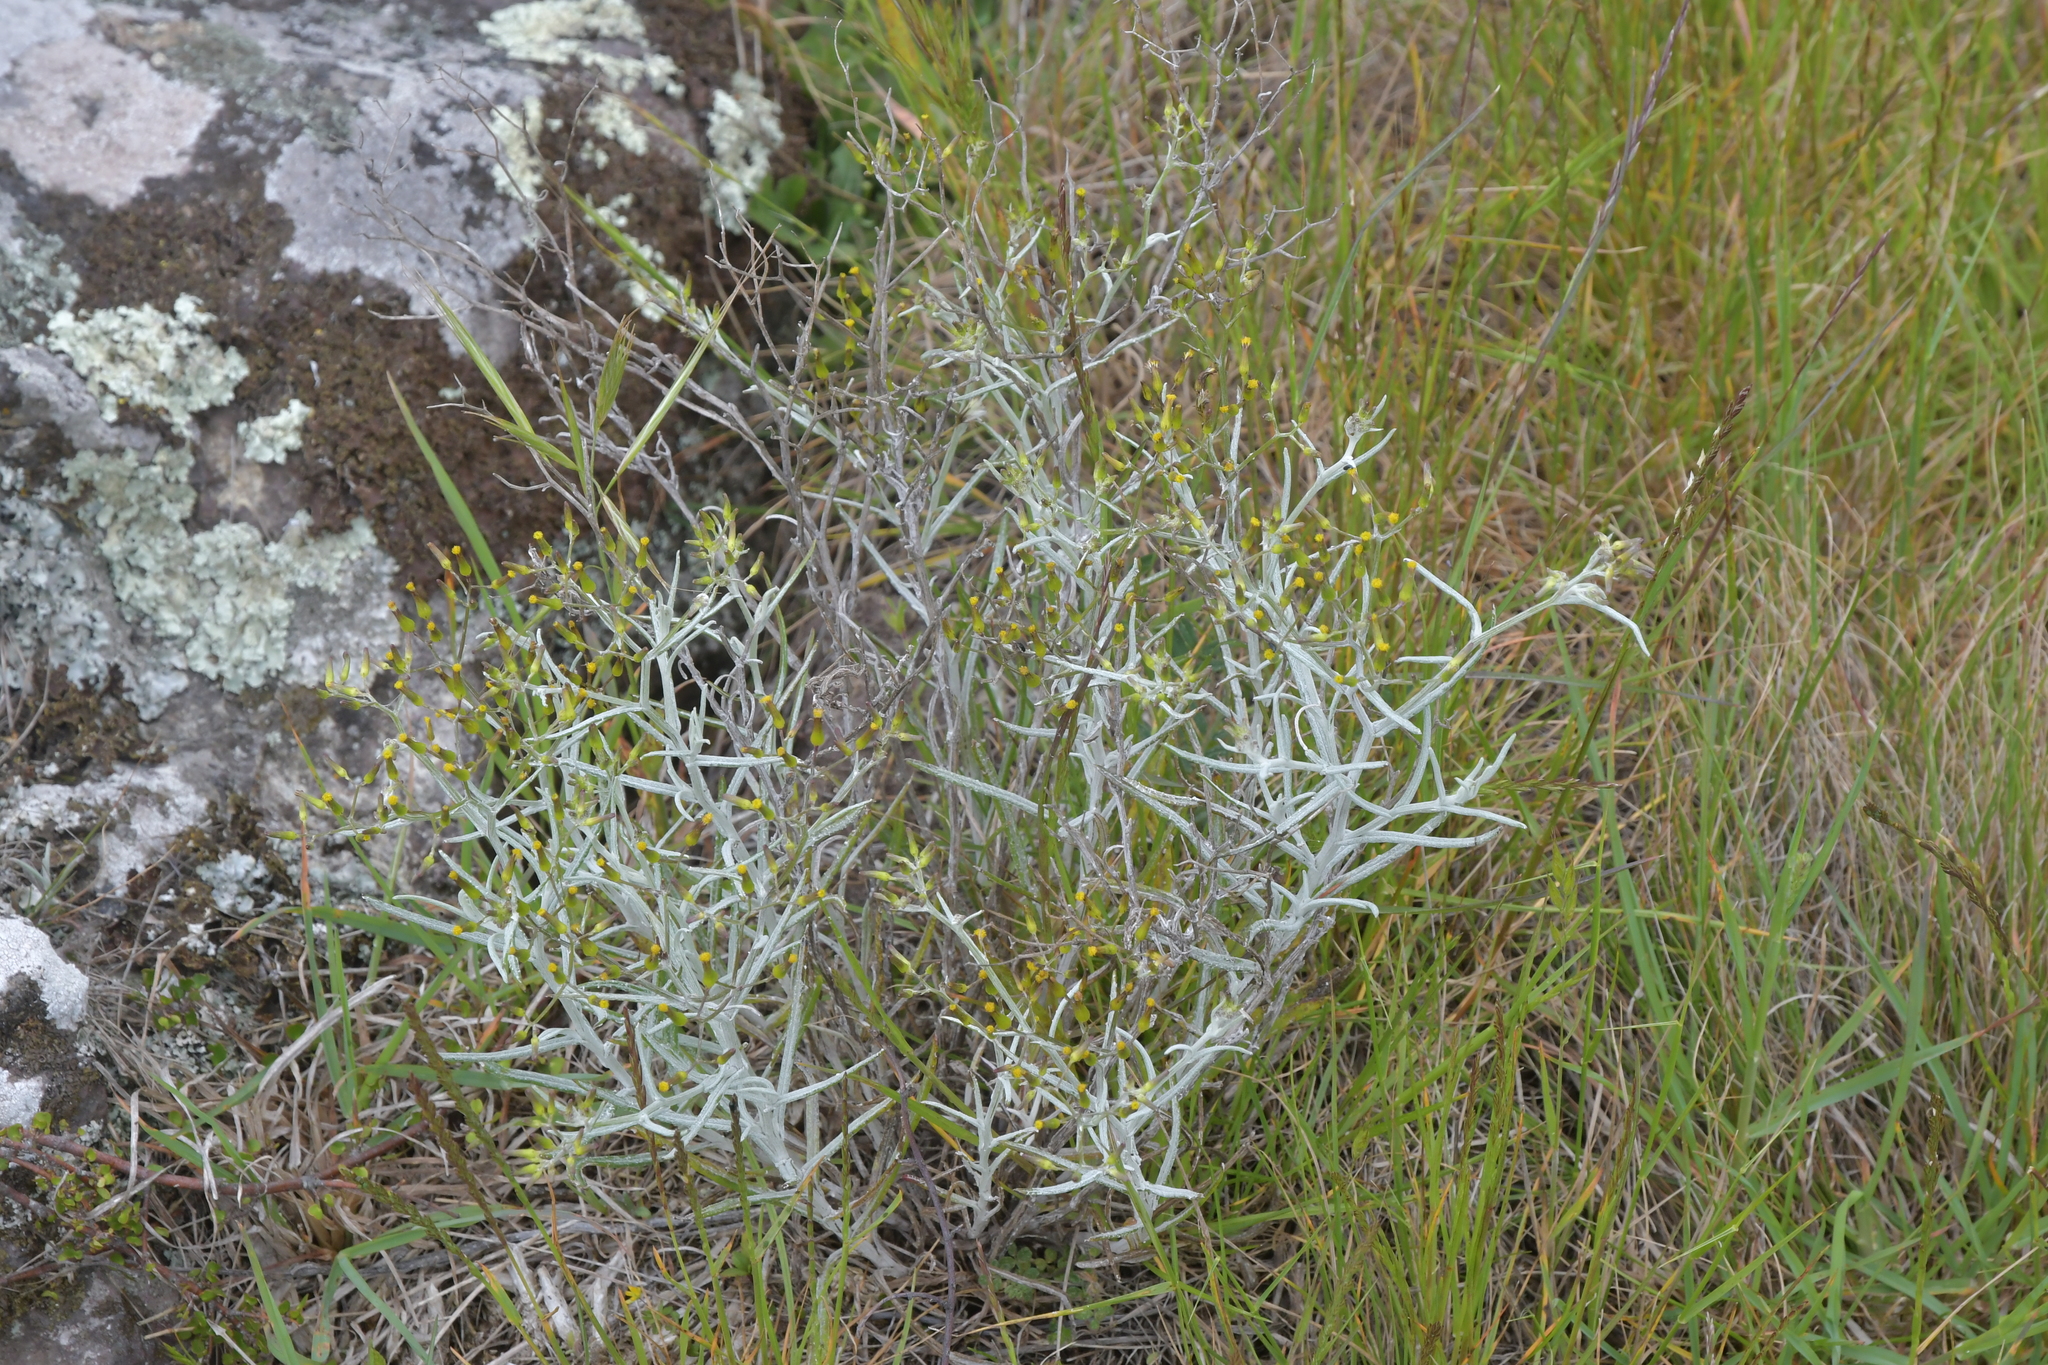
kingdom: Plantae
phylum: Tracheophyta
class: Magnoliopsida
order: Asterales
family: Asteraceae
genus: Senecio
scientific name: Senecio quadridentatus
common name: Cotton fireweed
